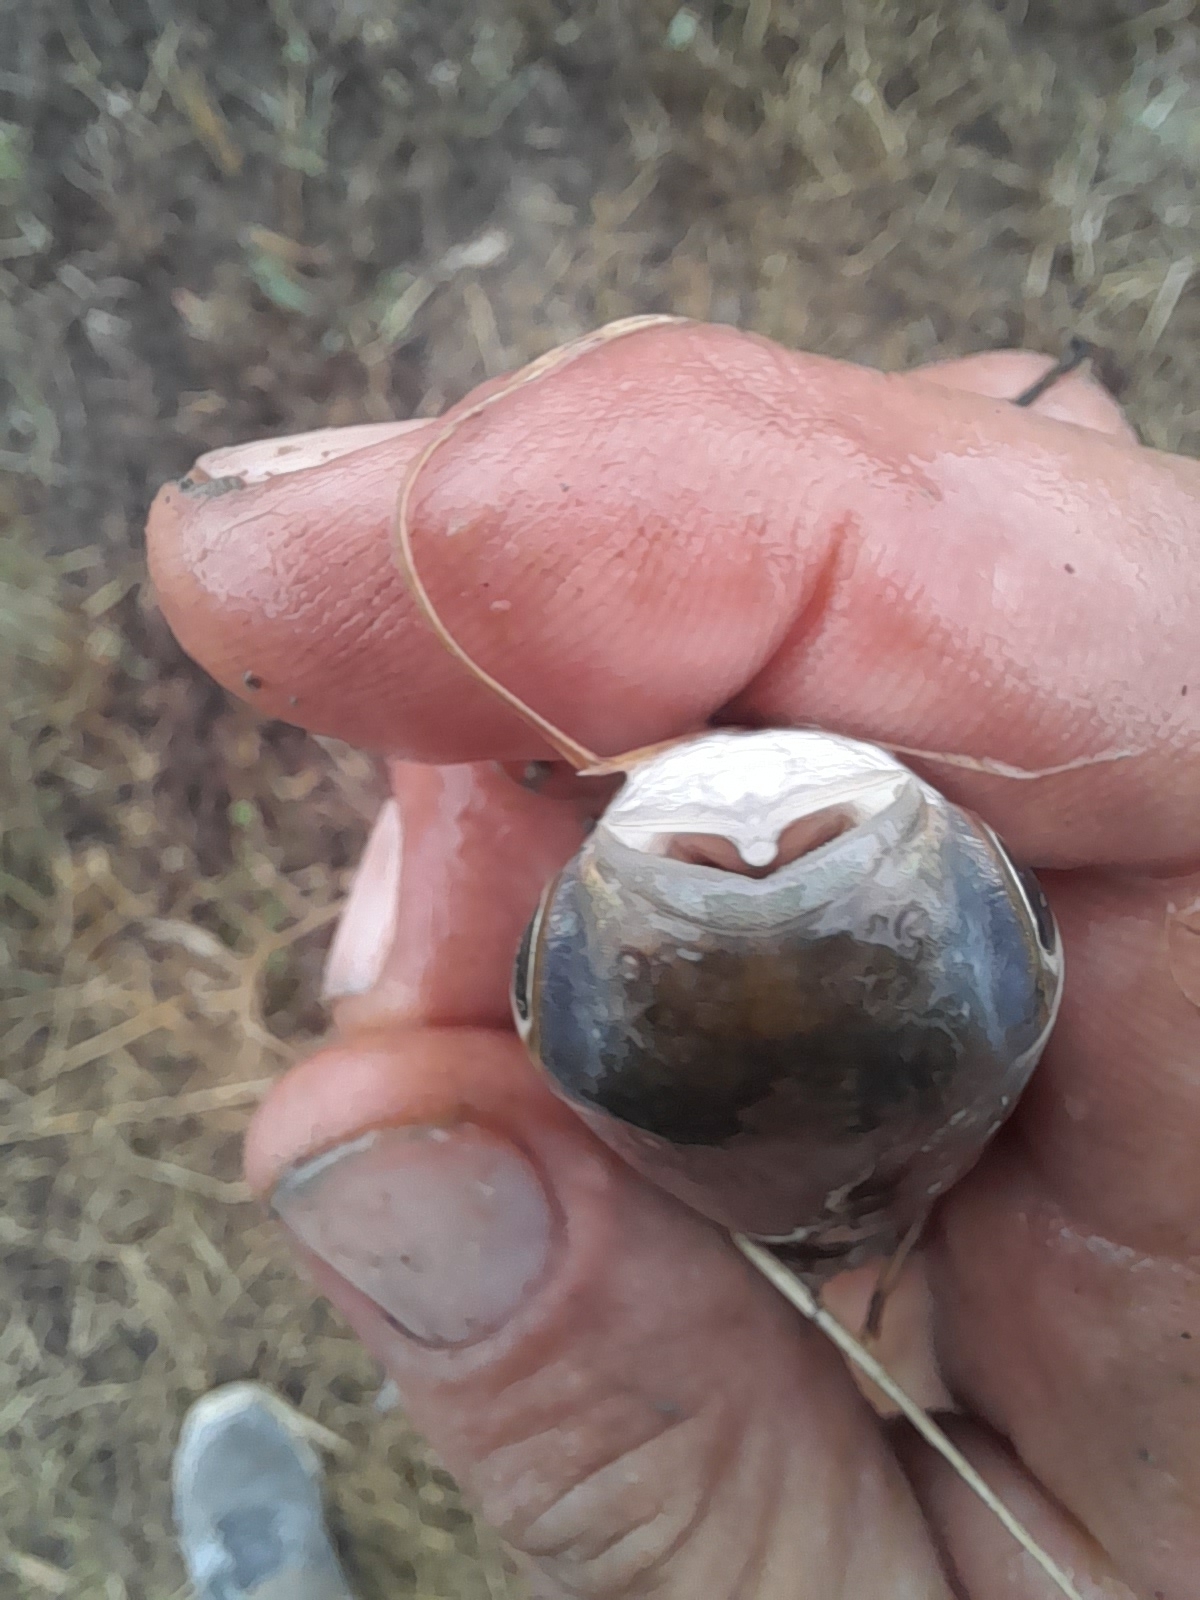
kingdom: Animalia
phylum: Chordata
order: Mugiliformes
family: Mugilidae
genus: Mugil
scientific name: Mugil cephalus
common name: Grey mullet
